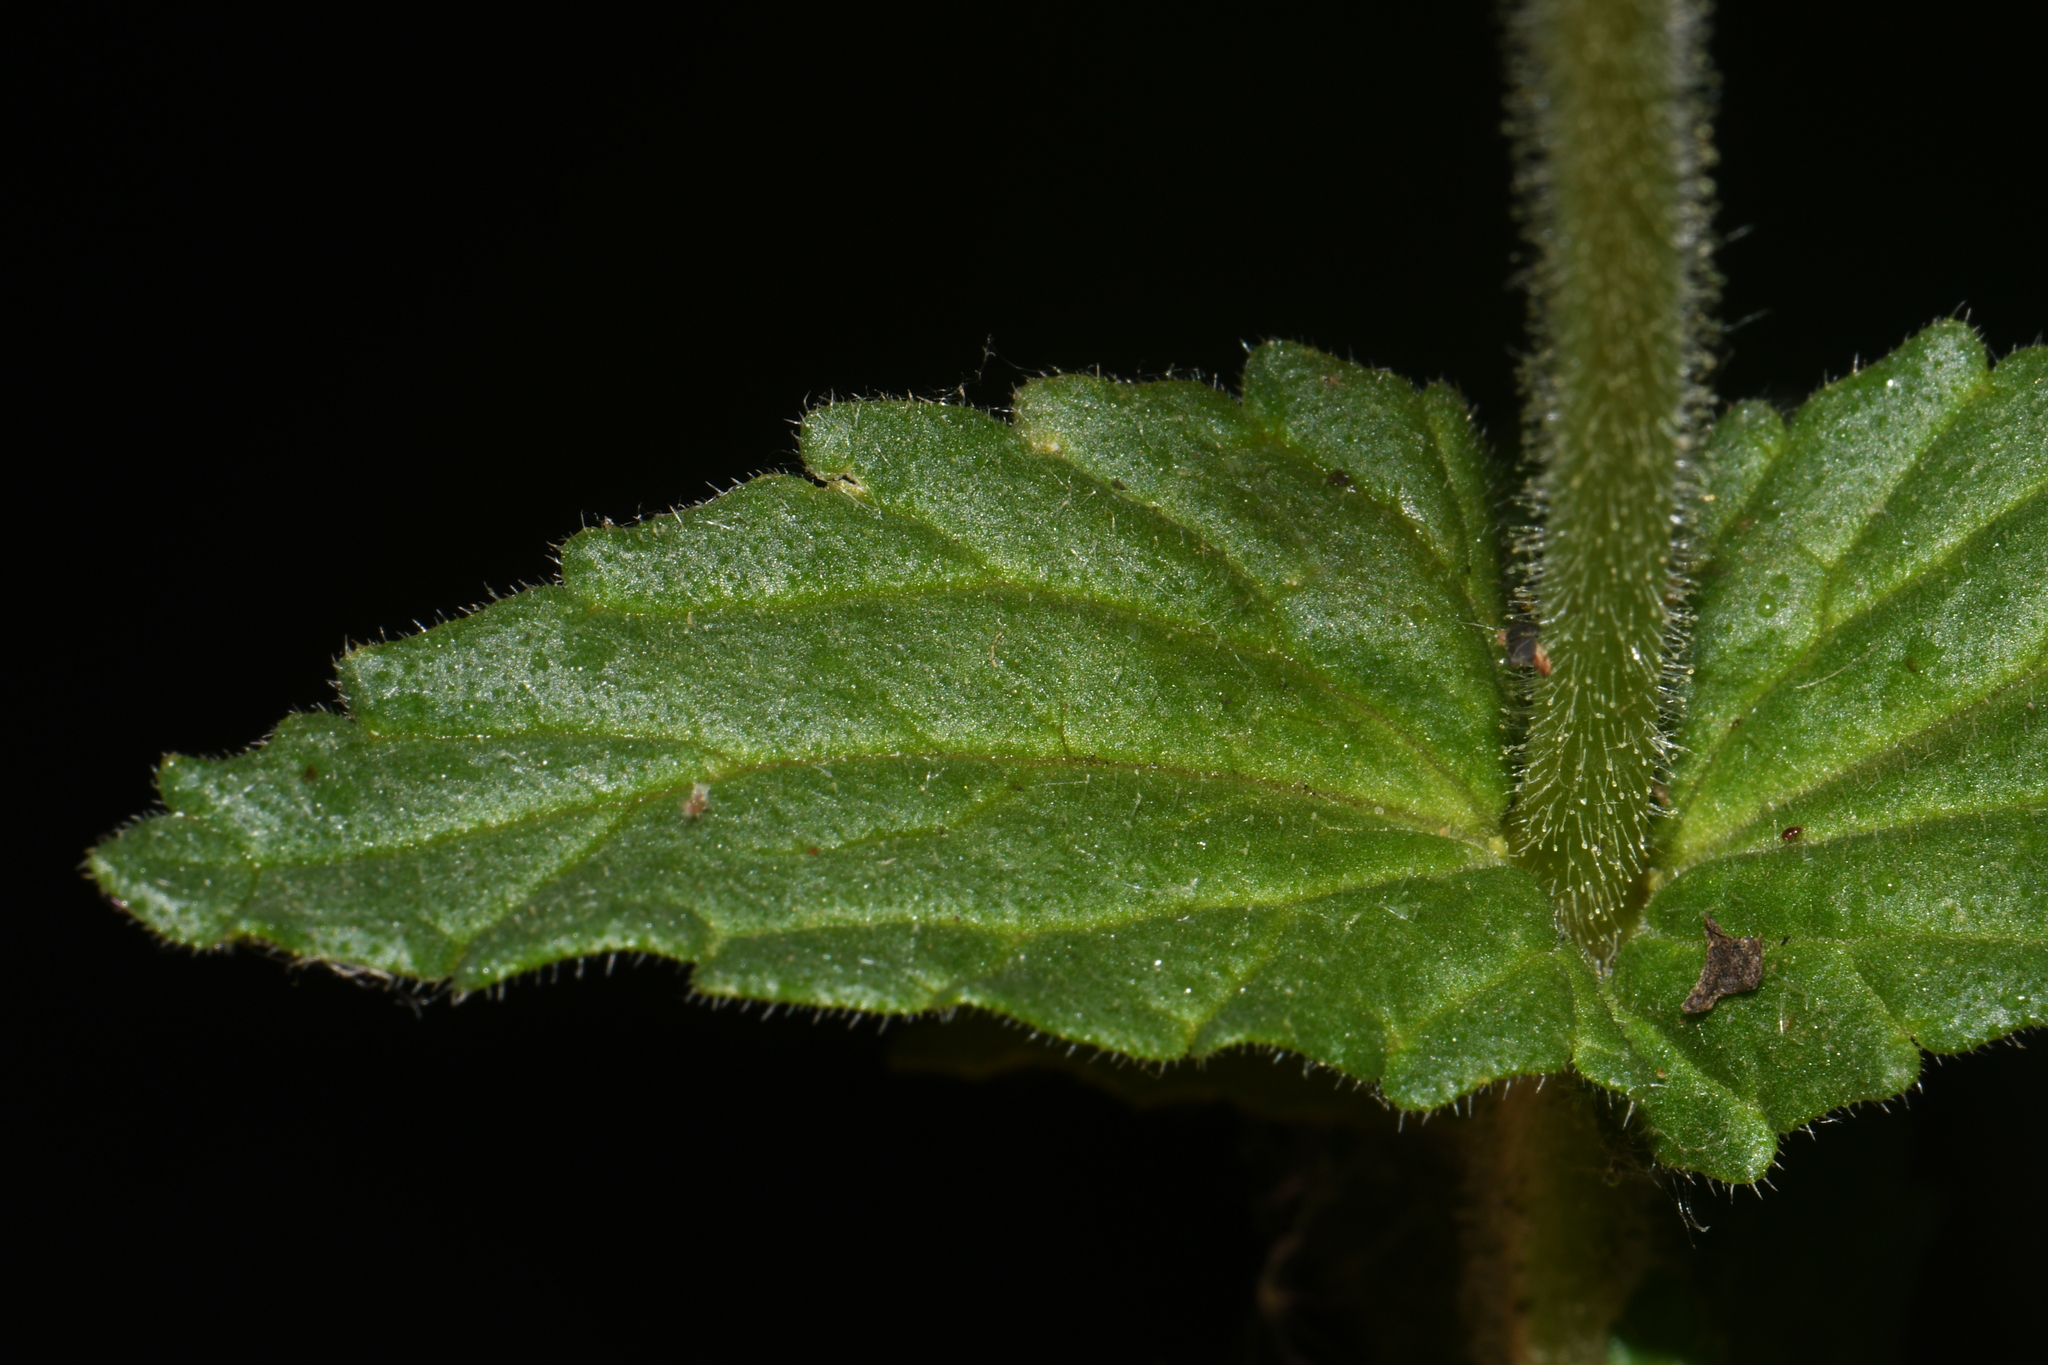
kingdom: Plantae
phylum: Tracheophyta
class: Magnoliopsida
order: Lamiales
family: Orobanchaceae
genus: Bellardia
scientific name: Bellardia viscosa
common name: Sticky parentucellia
